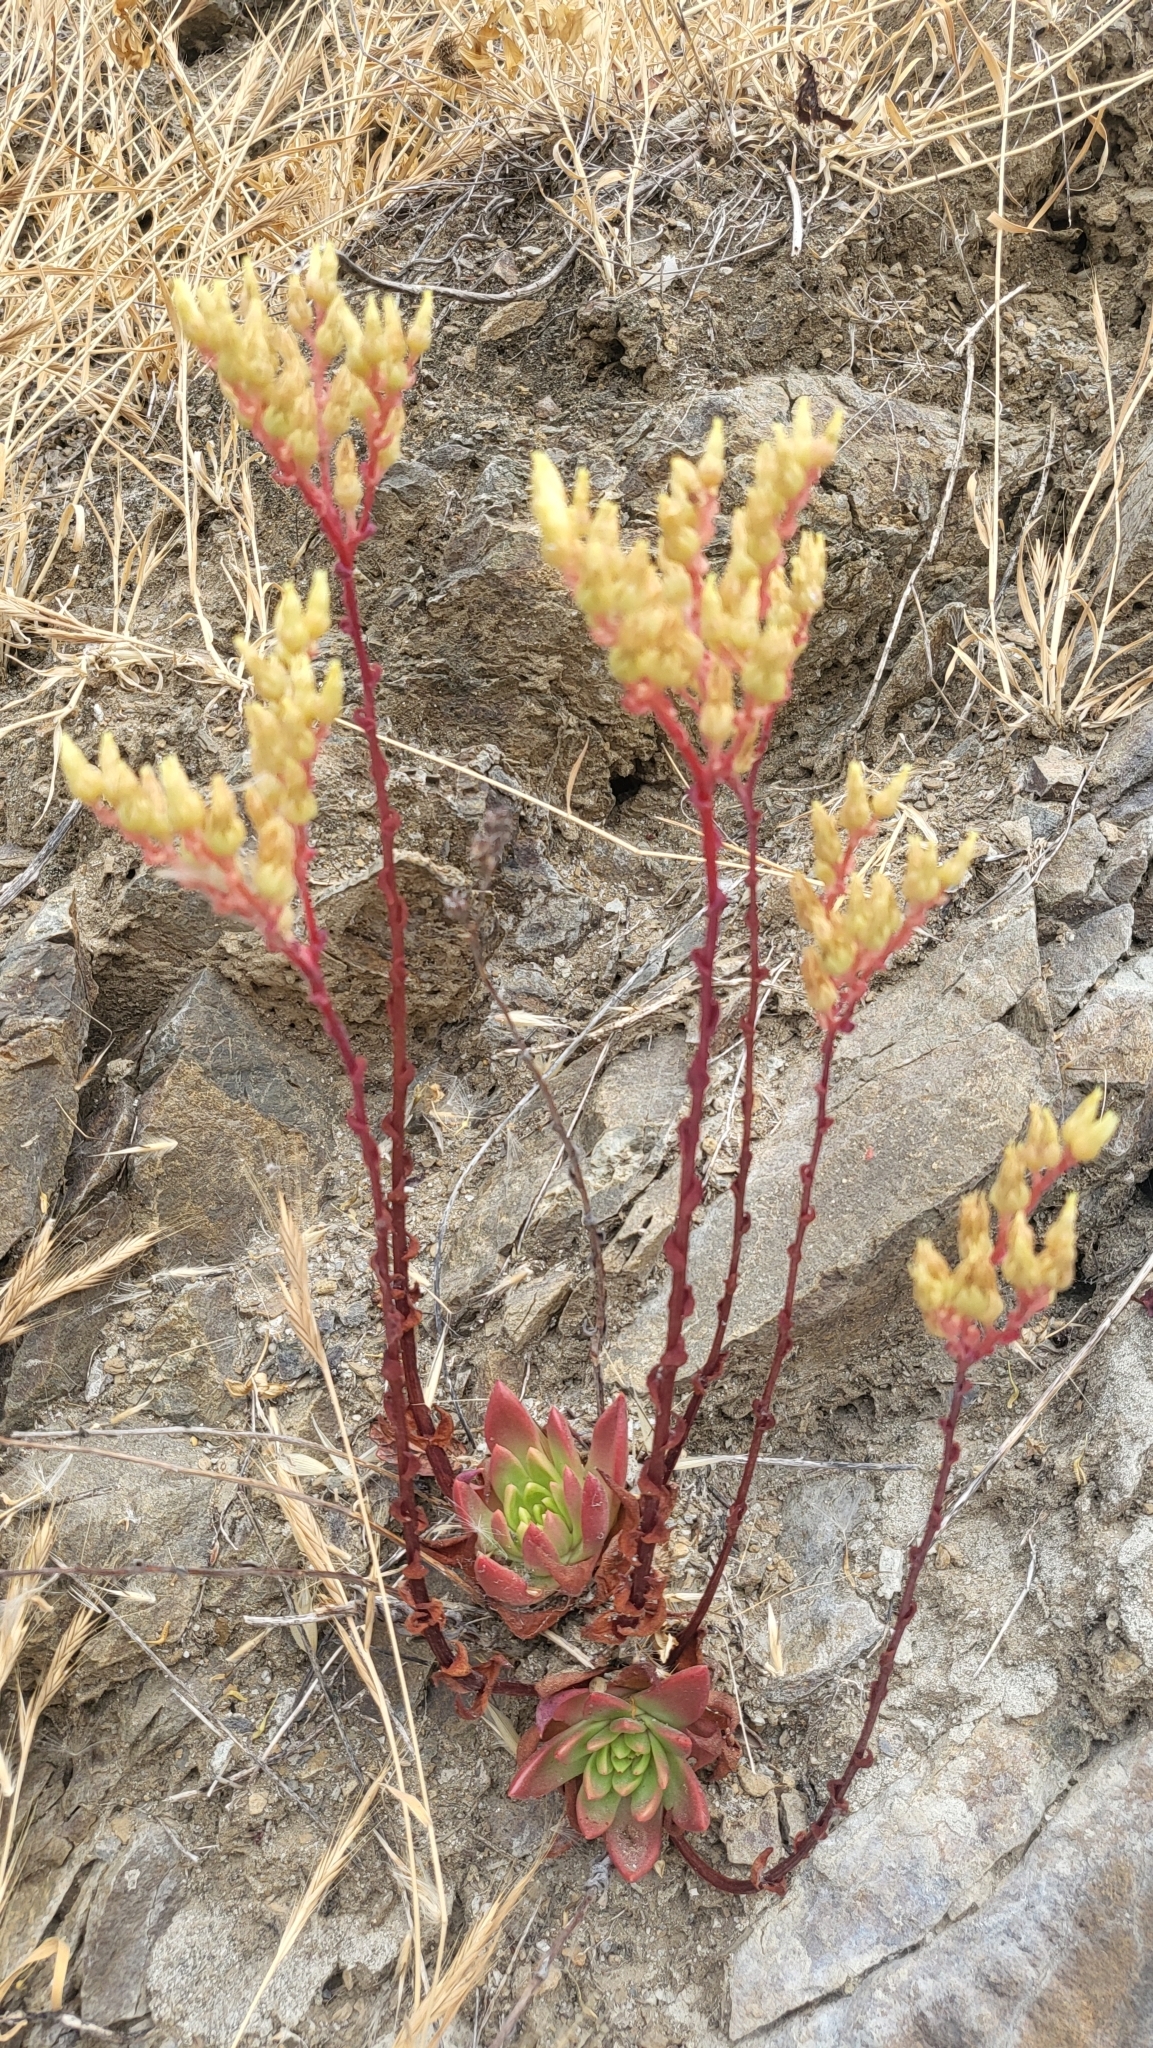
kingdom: Plantae
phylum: Tracheophyta
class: Magnoliopsida
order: Saxifragales
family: Crassulaceae
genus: Dudleya
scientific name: Dudleya farinosa
